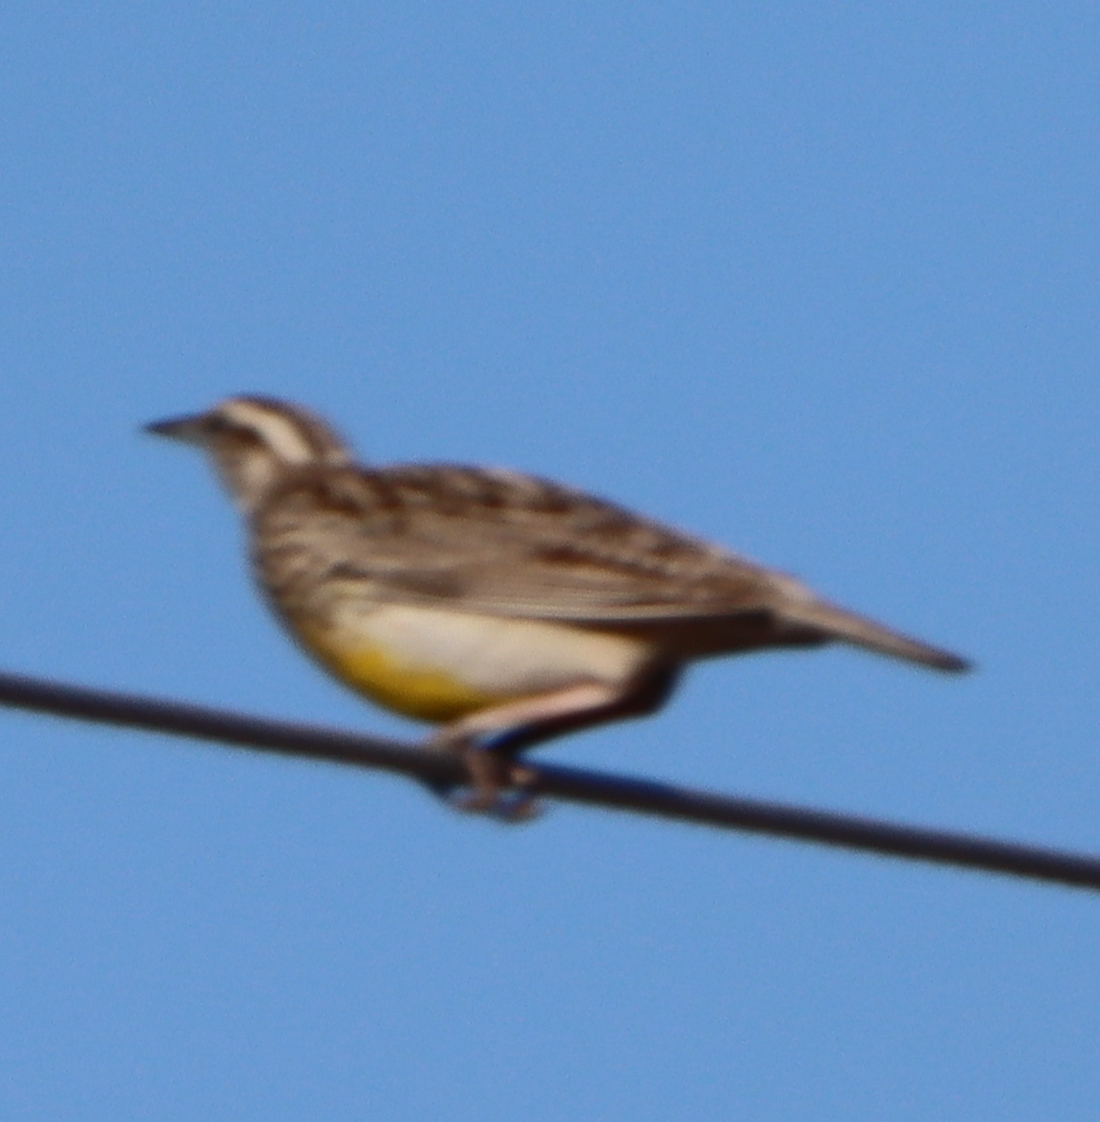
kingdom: Animalia
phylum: Chordata
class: Aves
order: Passeriformes
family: Icteridae
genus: Sturnella
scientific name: Sturnella neglecta
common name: Western meadowlark
